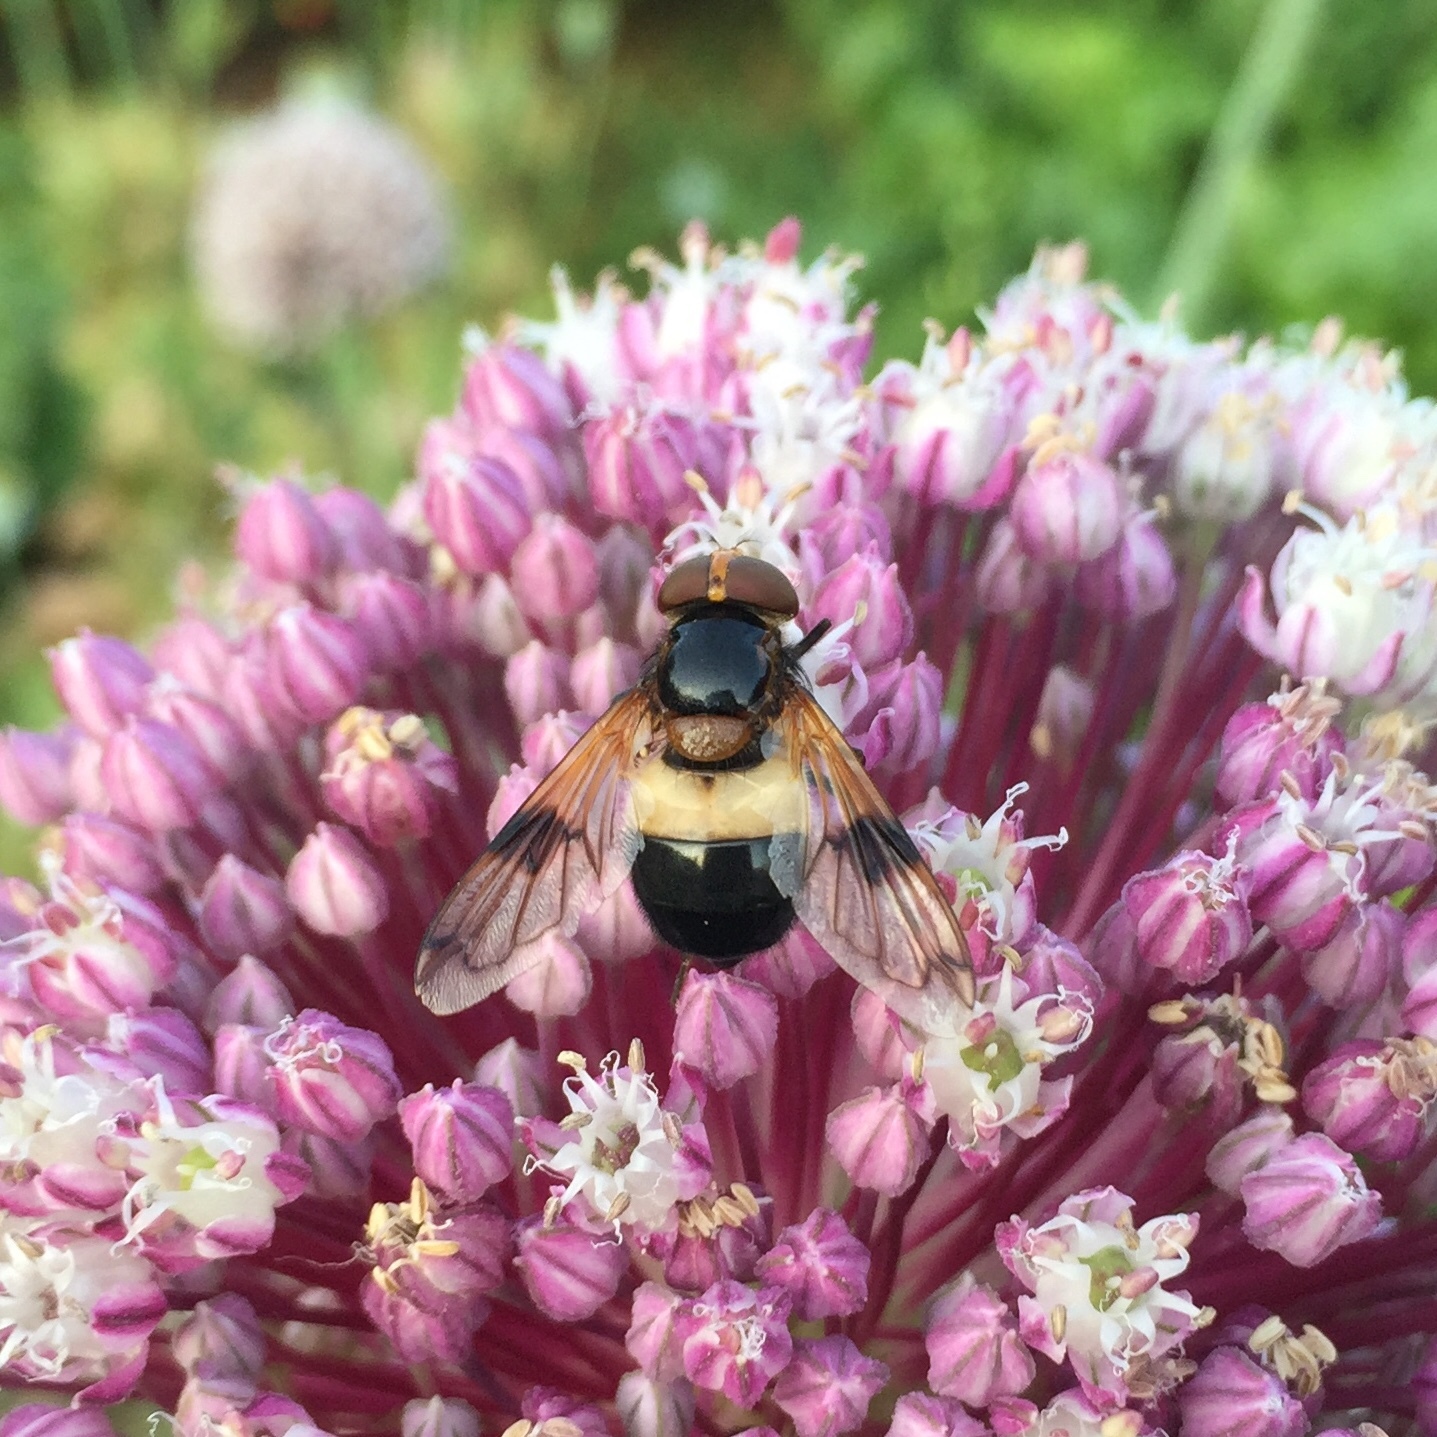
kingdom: Animalia
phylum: Arthropoda
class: Insecta
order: Diptera
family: Syrphidae
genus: Volucella
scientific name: Volucella pellucens
